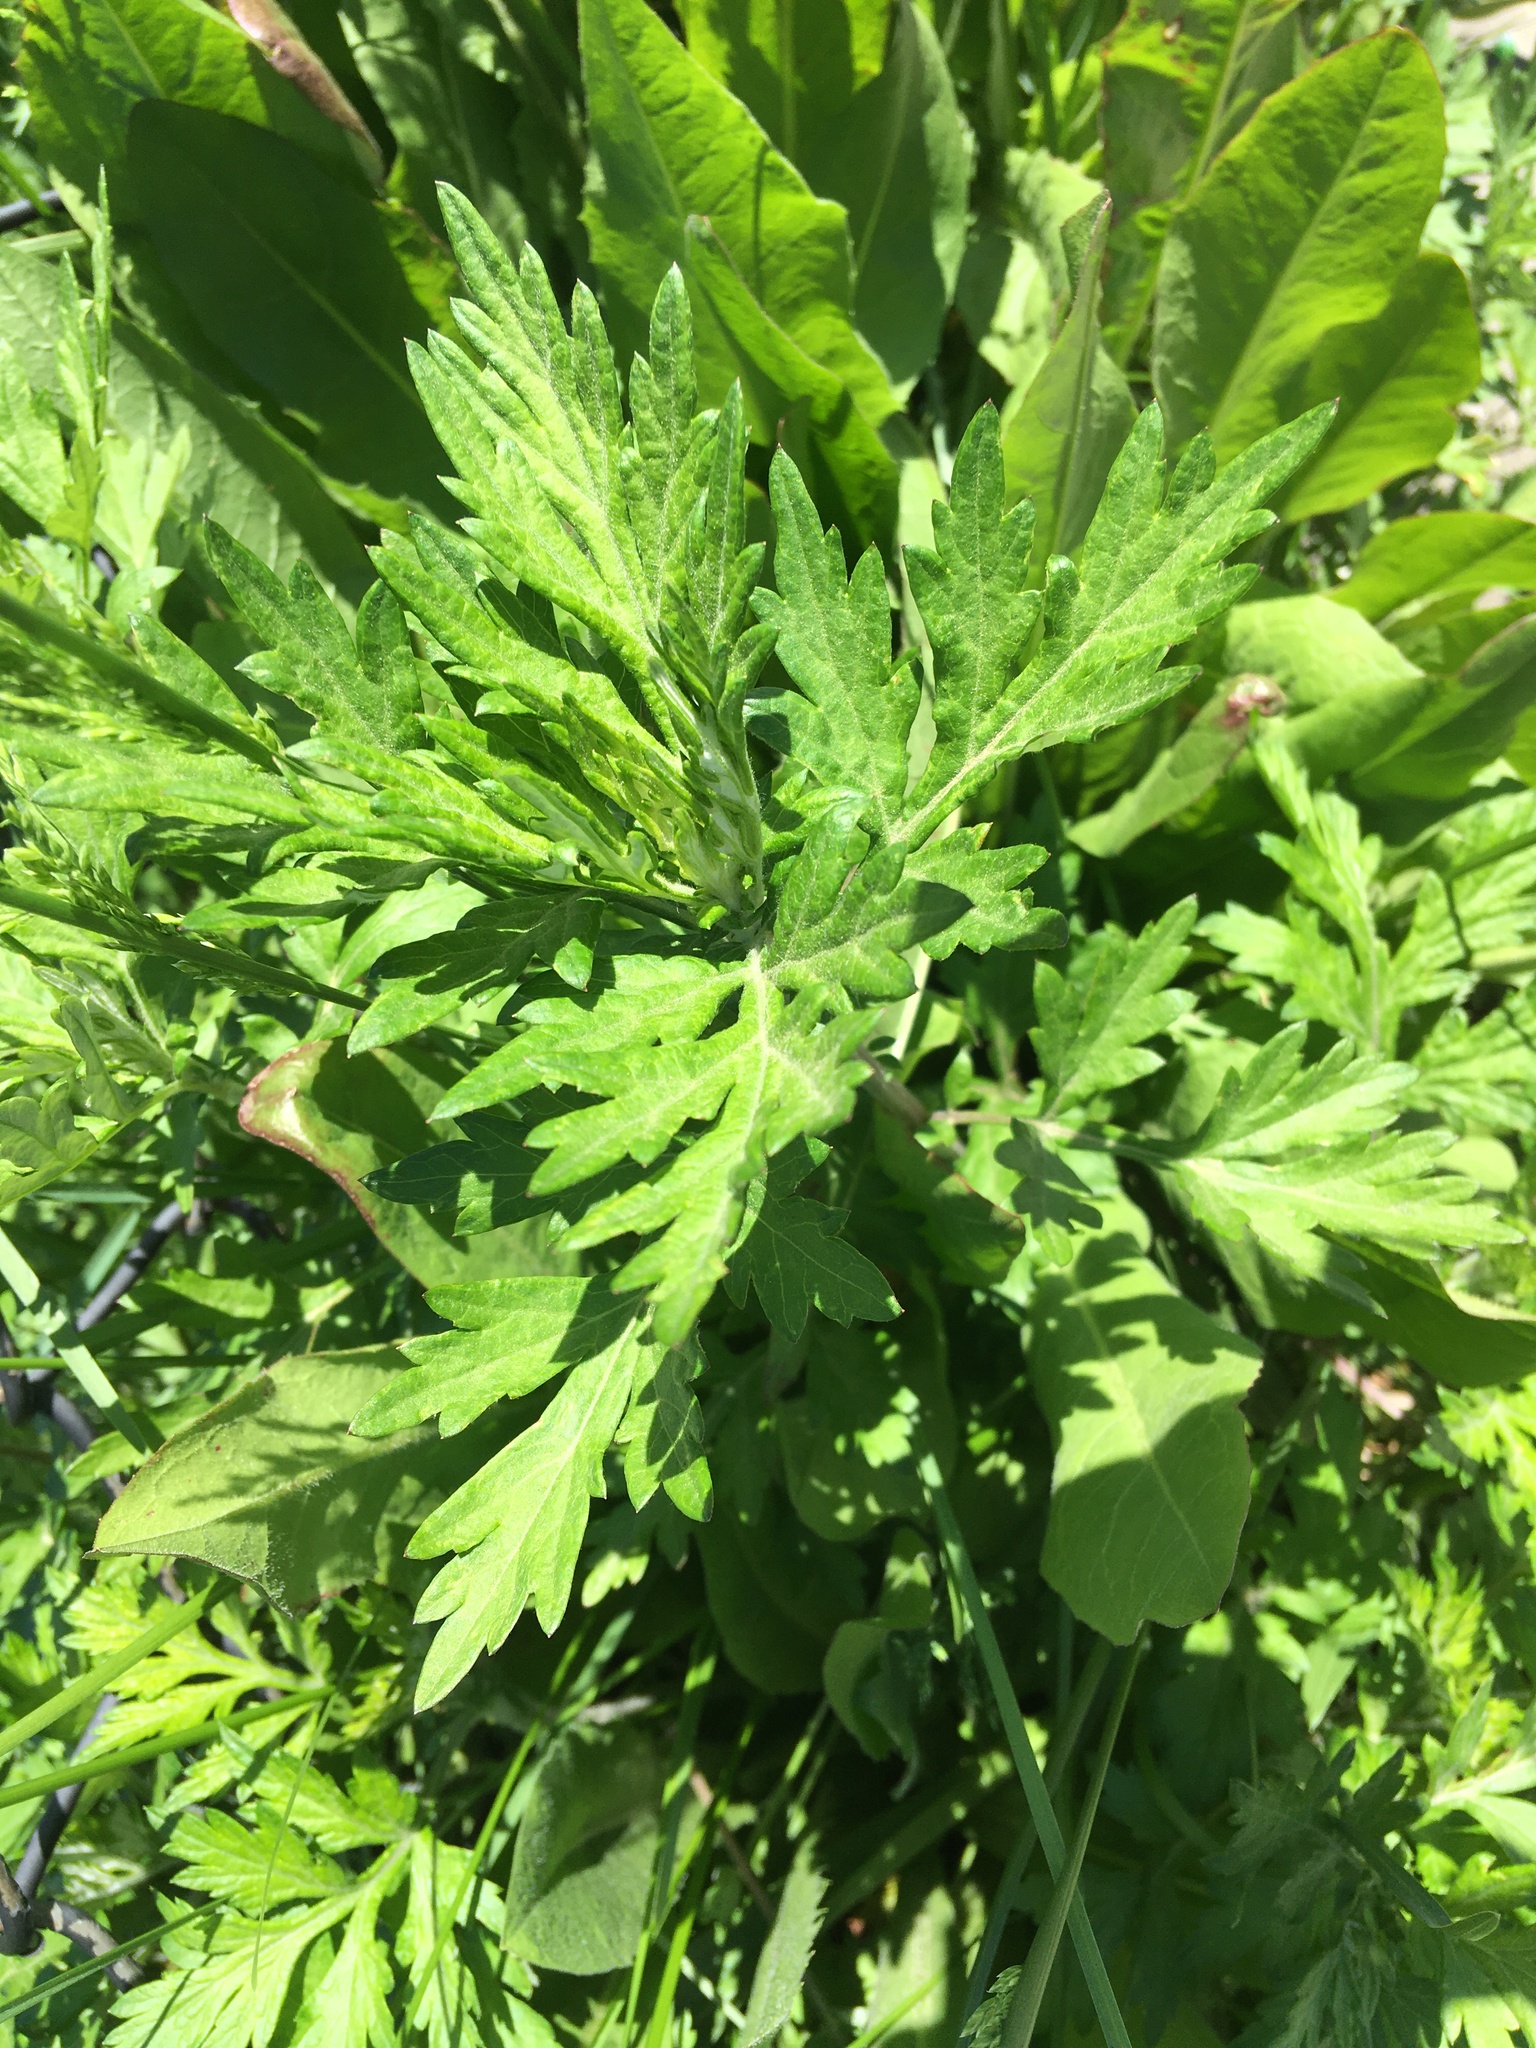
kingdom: Plantae
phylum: Tracheophyta
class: Magnoliopsida
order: Asterales
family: Asteraceae
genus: Artemisia
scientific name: Artemisia vulgaris
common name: Mugwort
